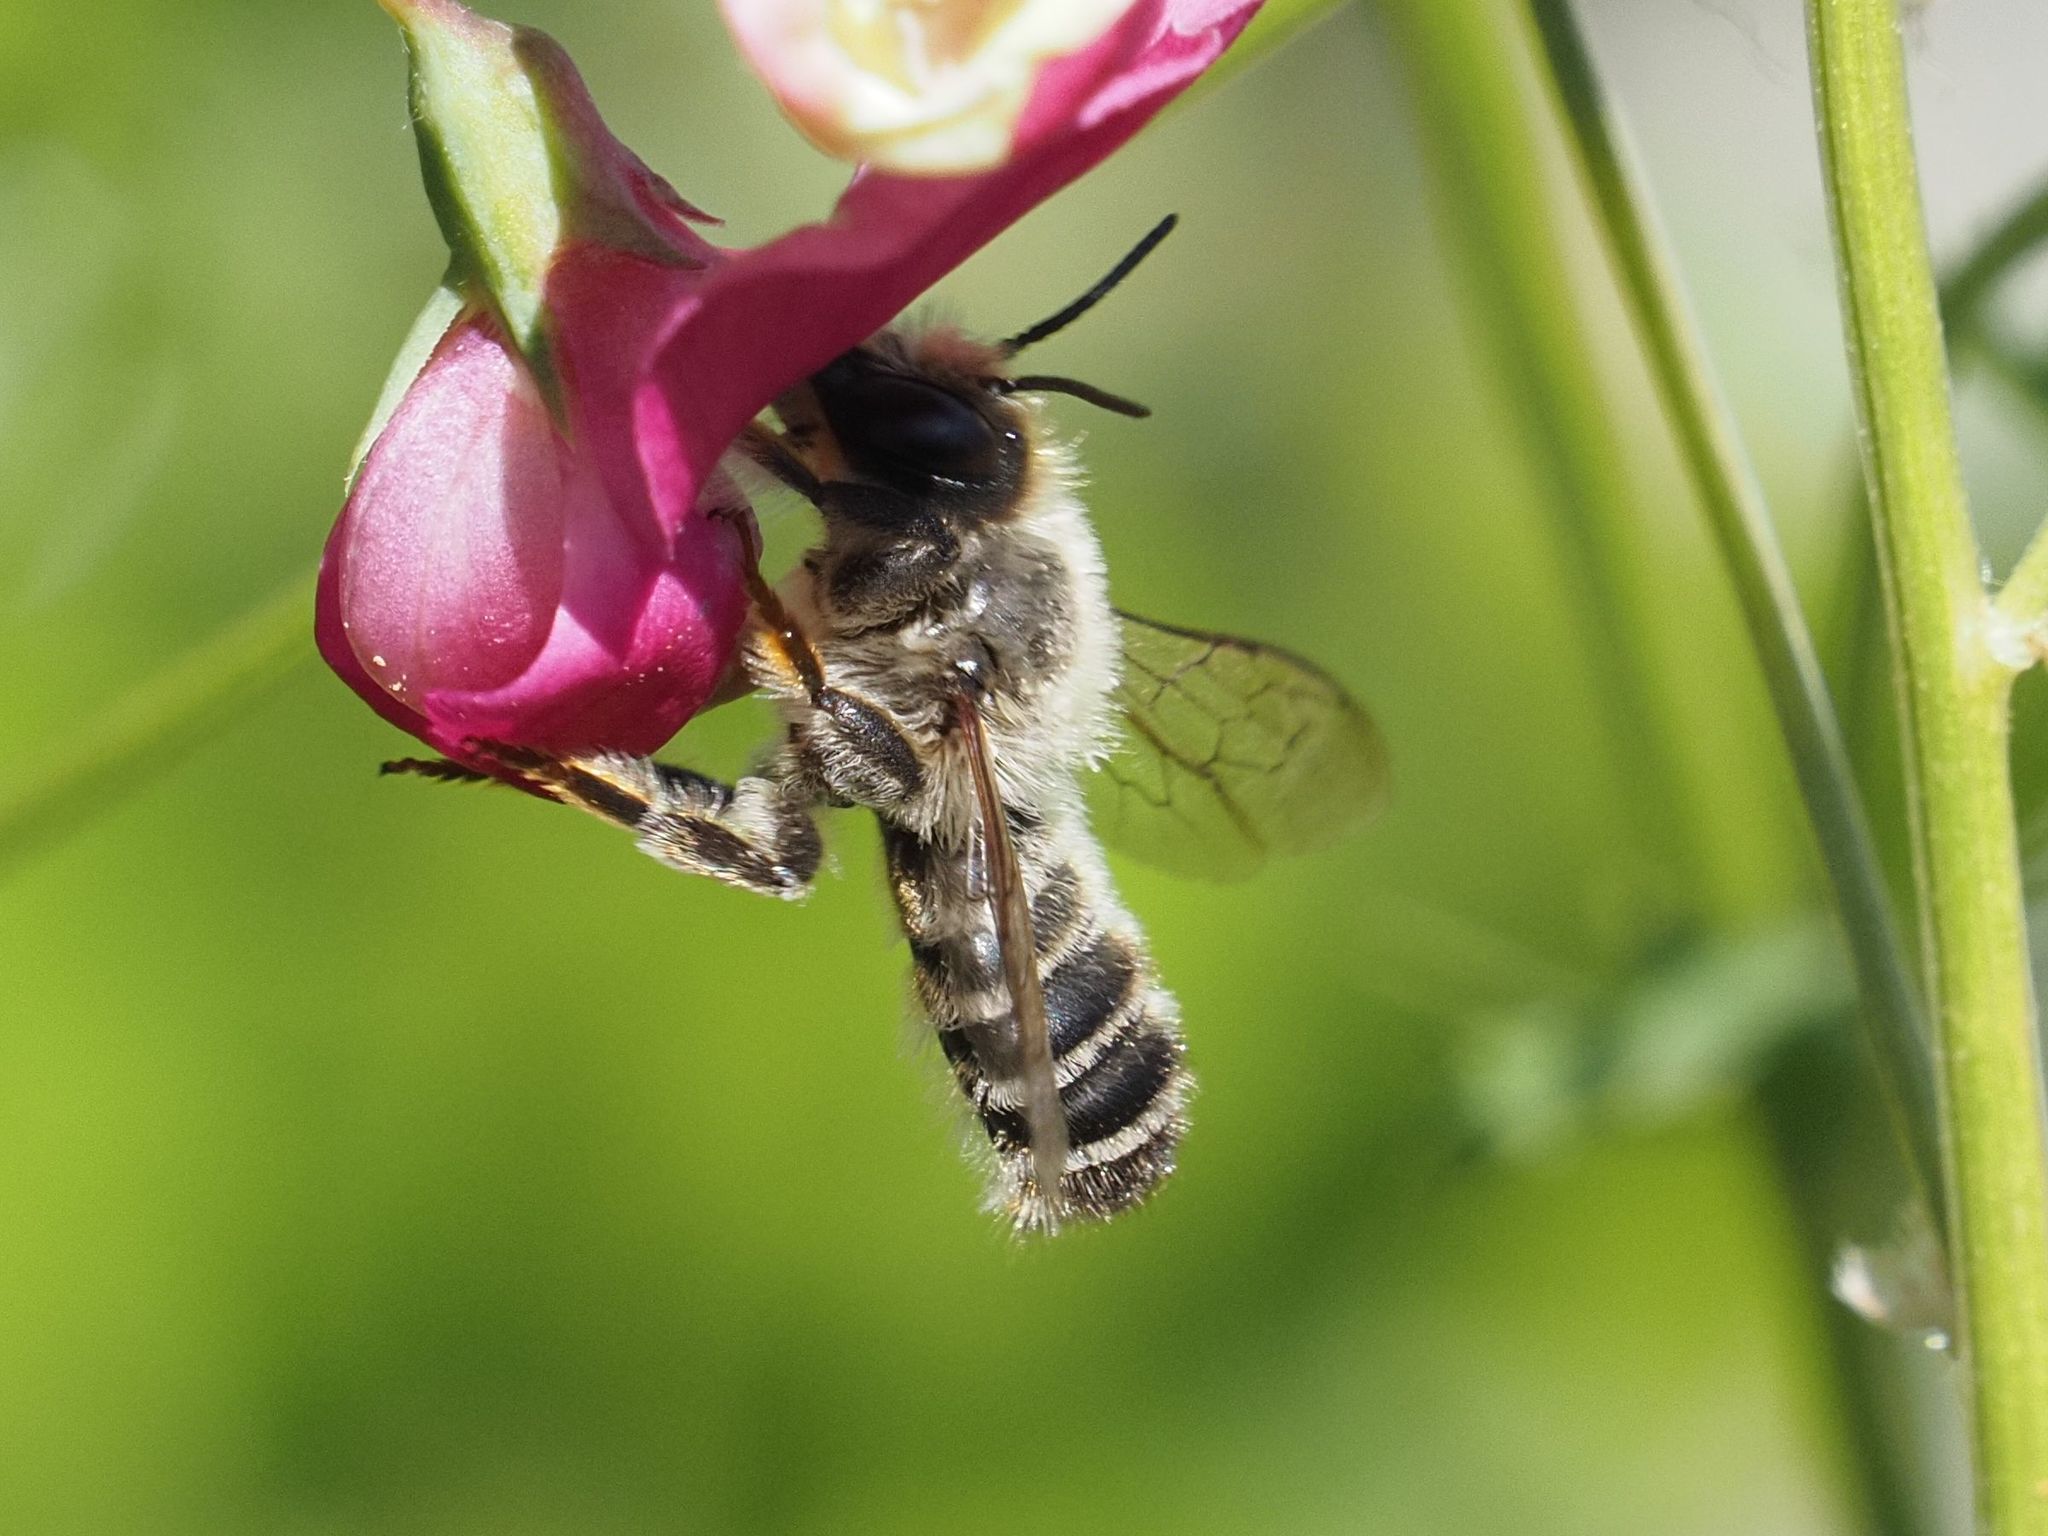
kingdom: Animalia
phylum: Arthropoda
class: Insecta
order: Hymenoptera
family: Megachilidae
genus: Megachile
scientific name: Megachile ericetorum
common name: Leafcutter bee
